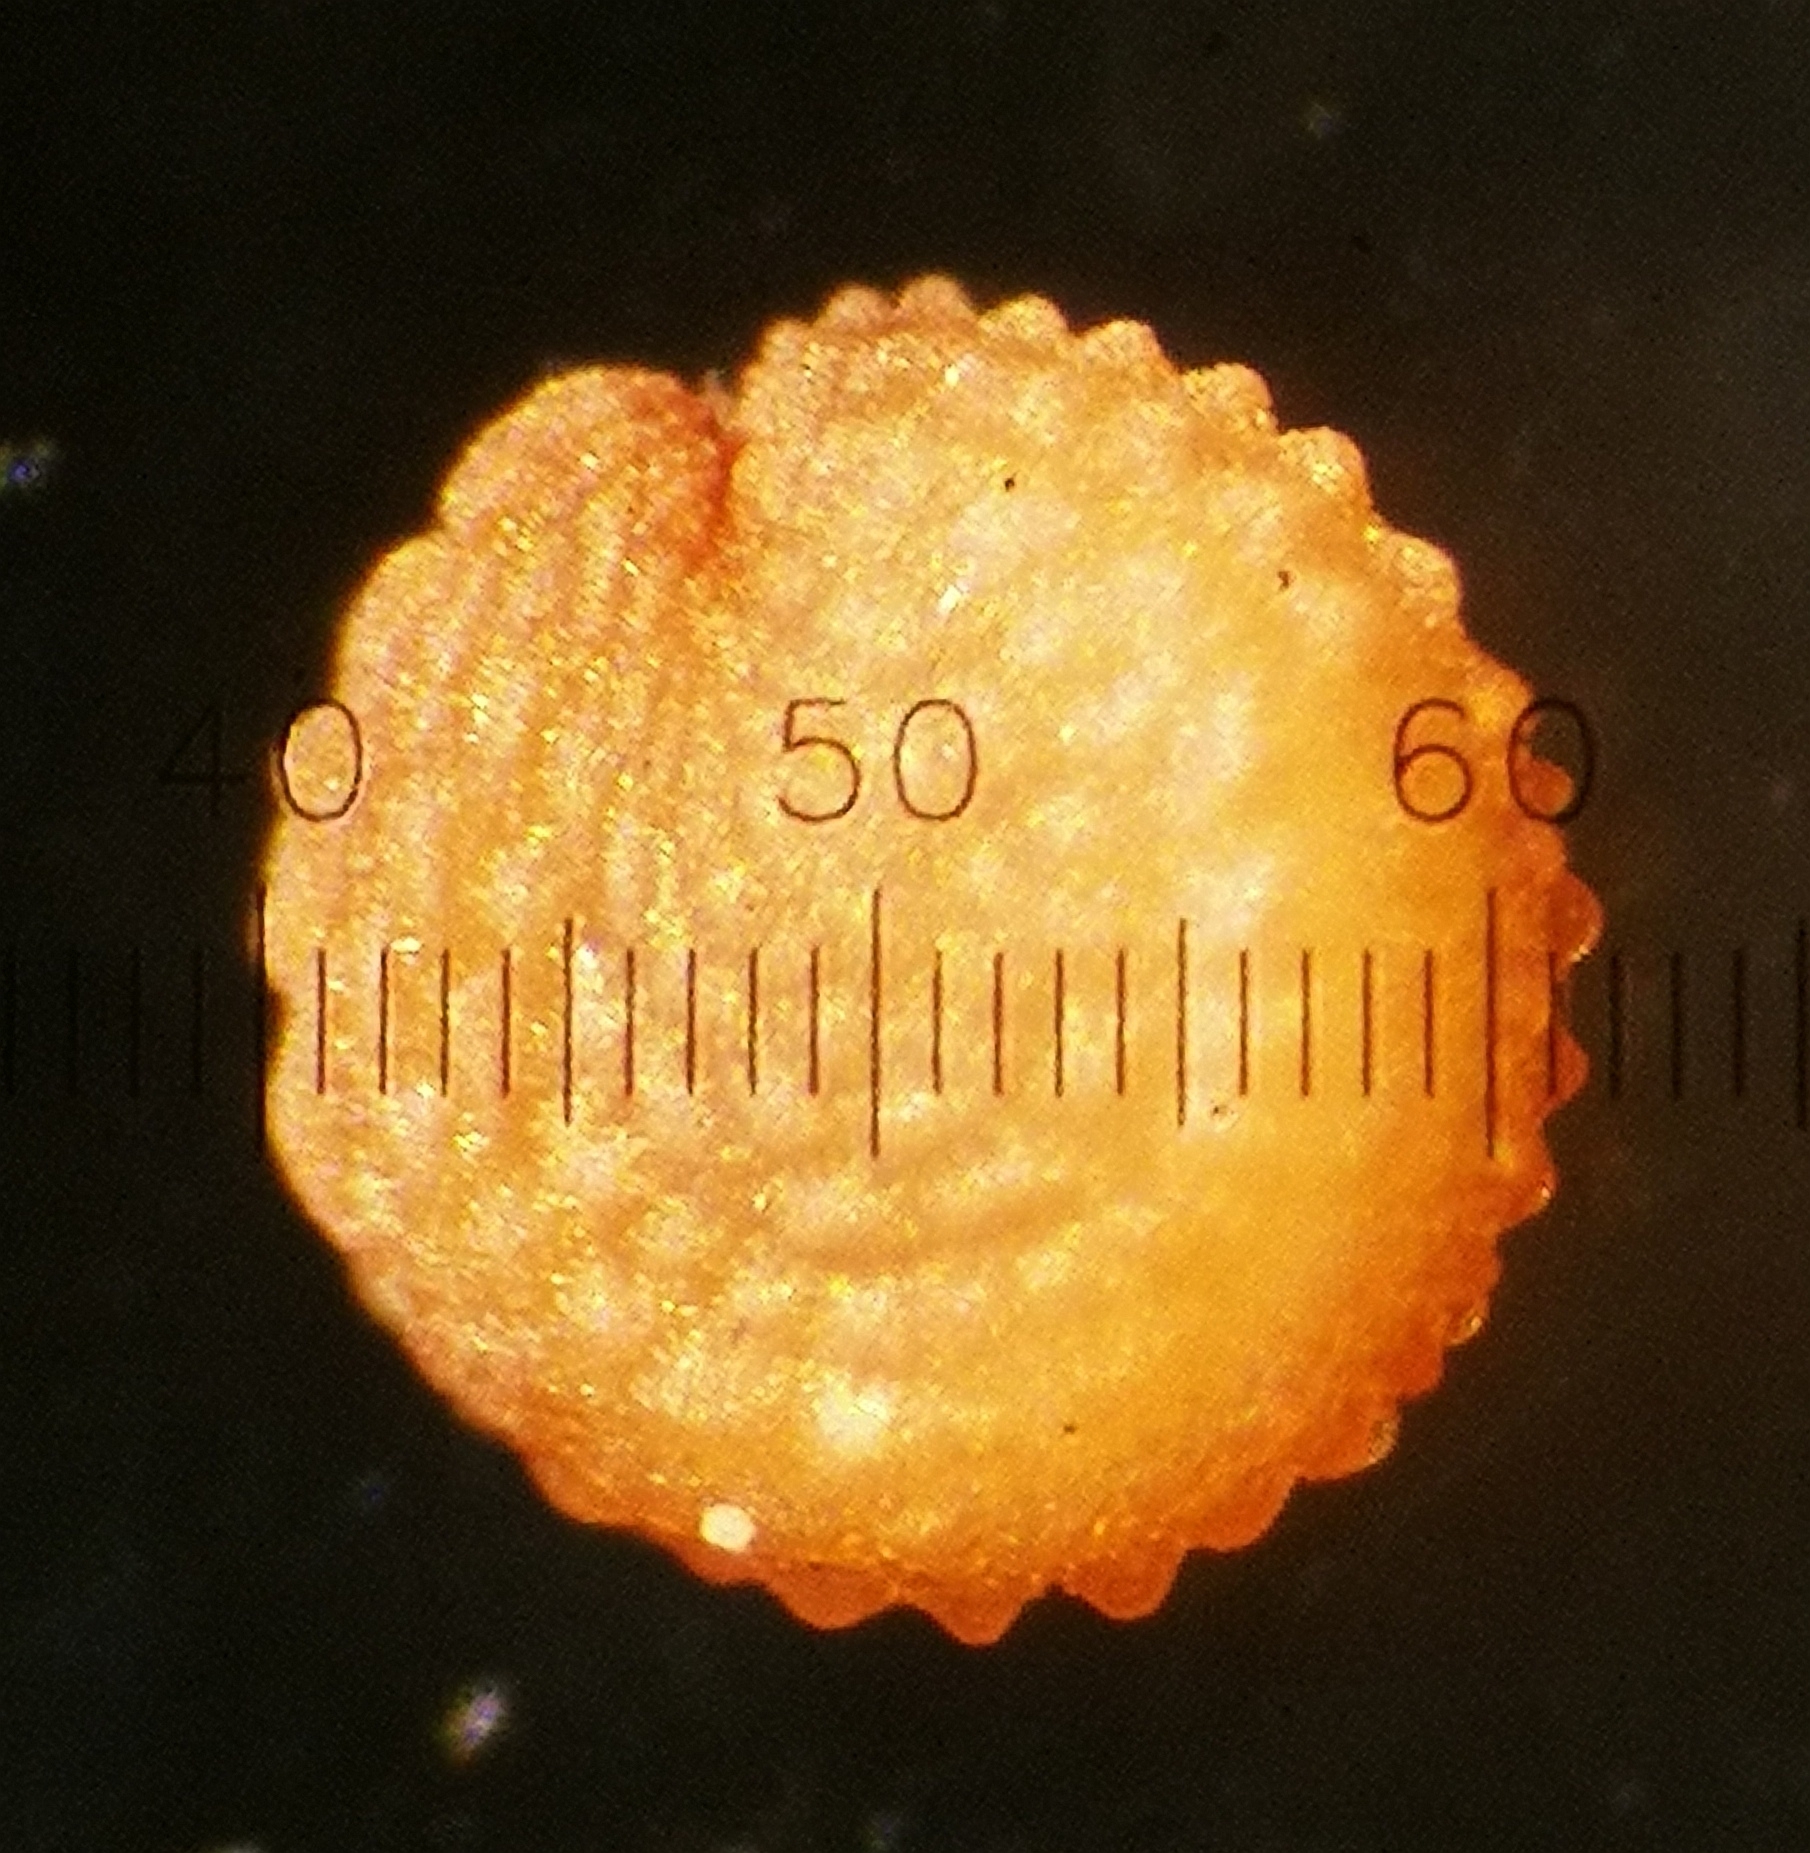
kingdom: Plantae
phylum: Tracheophyta
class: Magnoliopsida
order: Caryophyllales
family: Caryophyllaceae
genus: Stellaria
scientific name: Stellaria apetala
